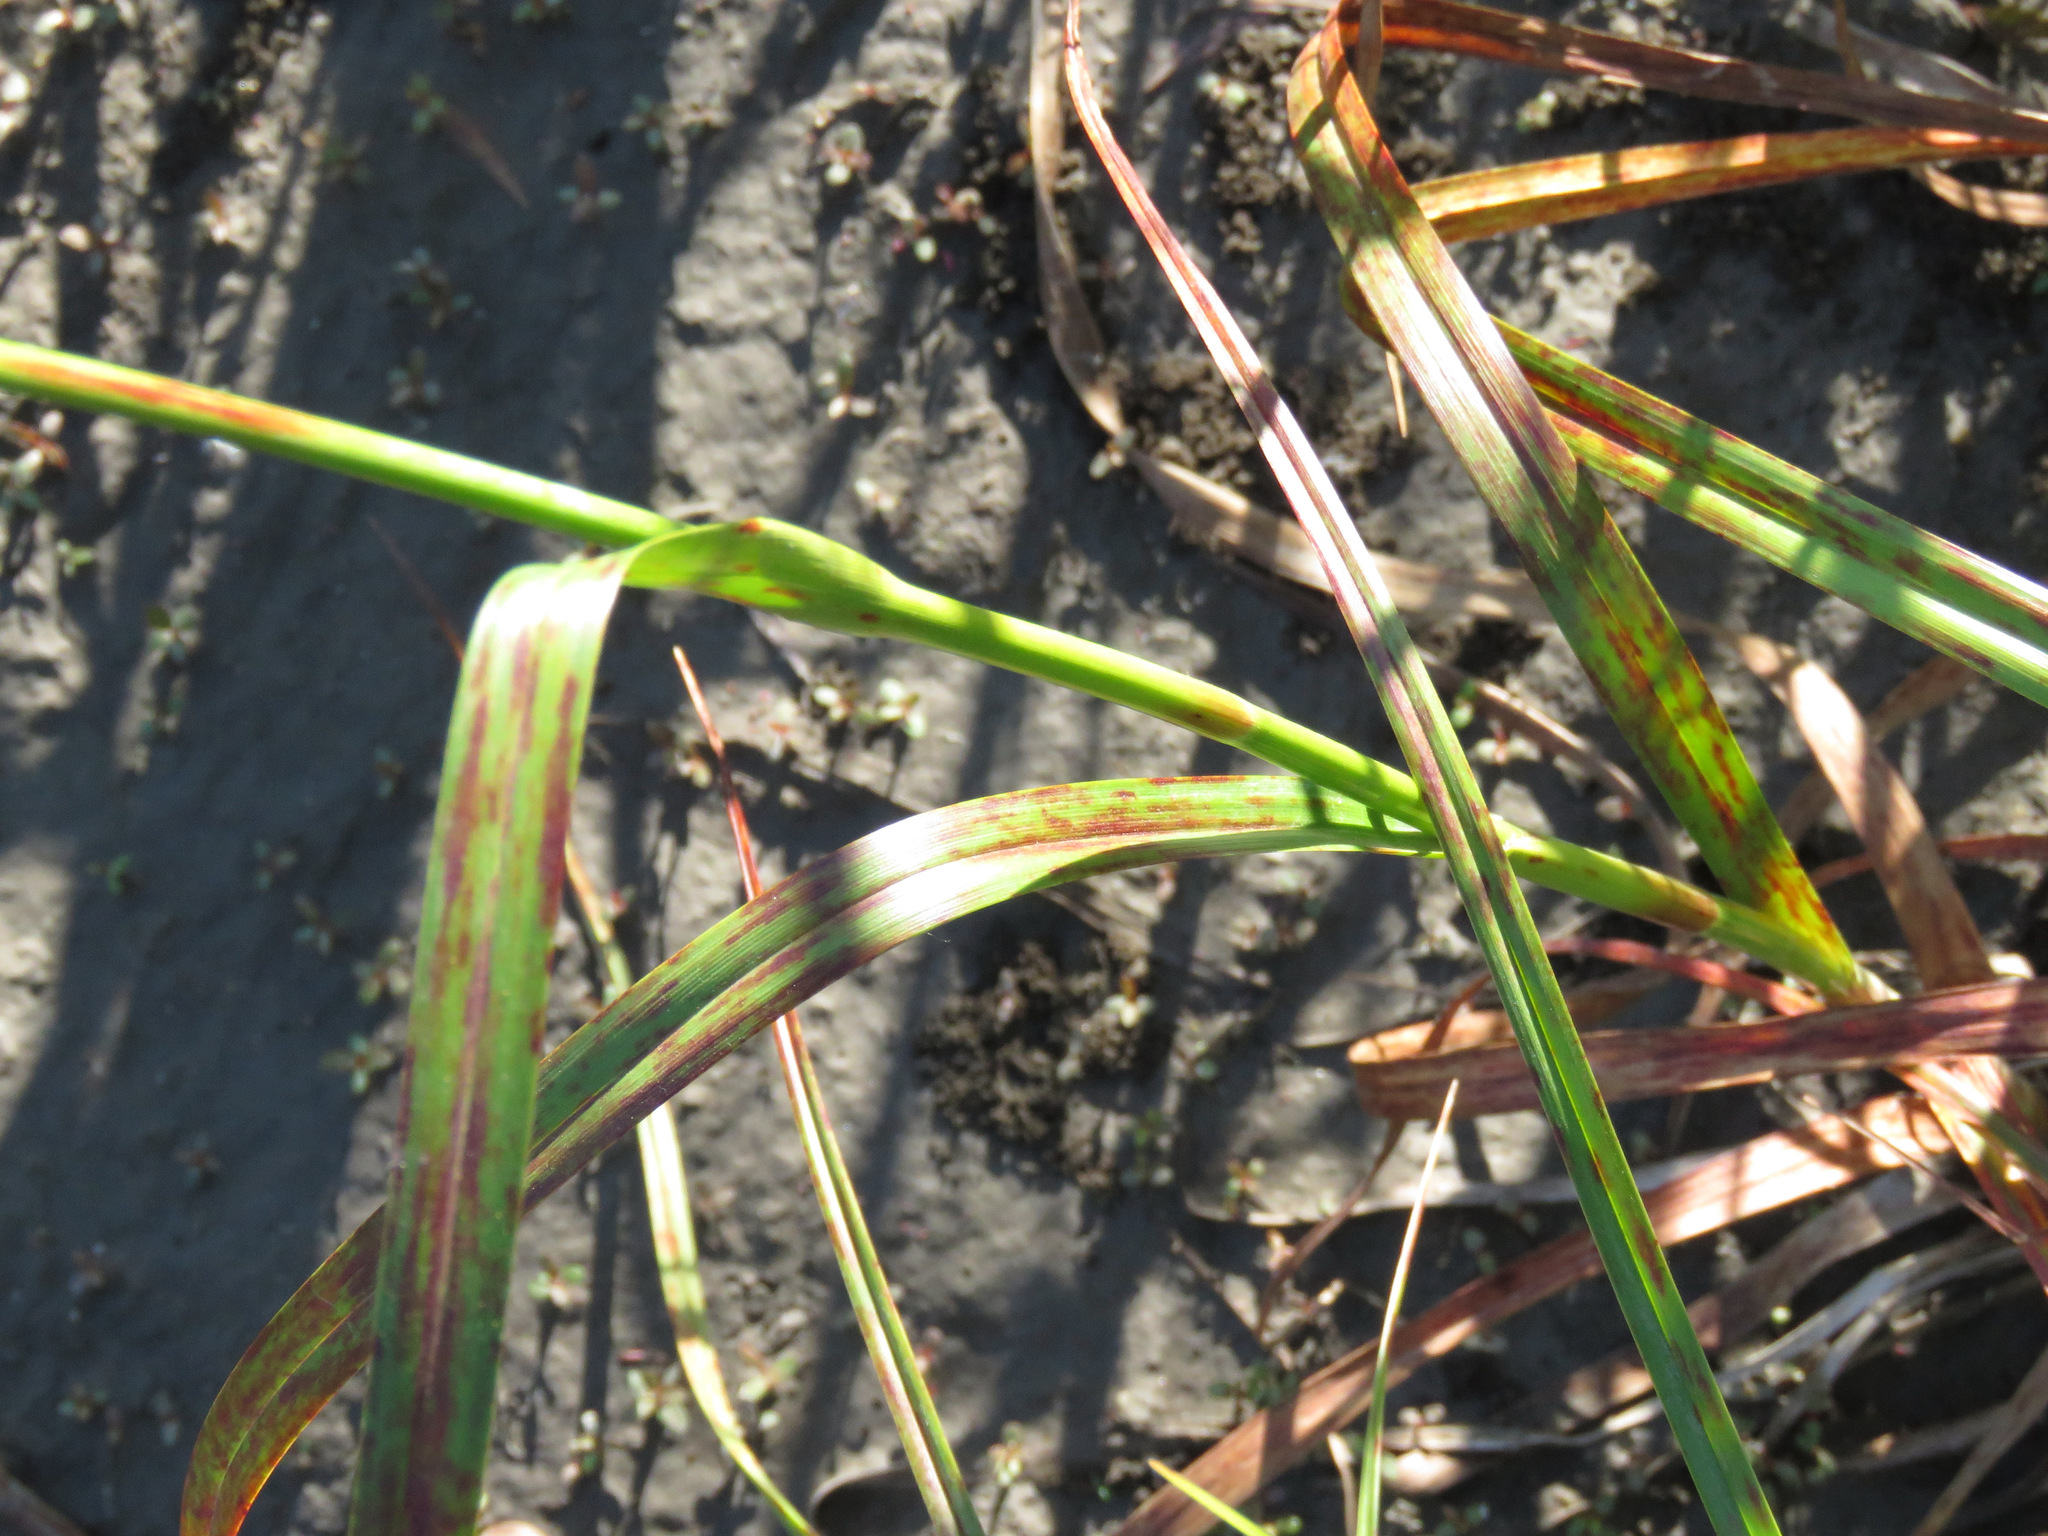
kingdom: Plantae
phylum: Tracheophyta
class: Liliopsida
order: Poales
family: Cyperaceae
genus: Scirpus
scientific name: Scirpus microcarpus
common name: Panicled bulrush
